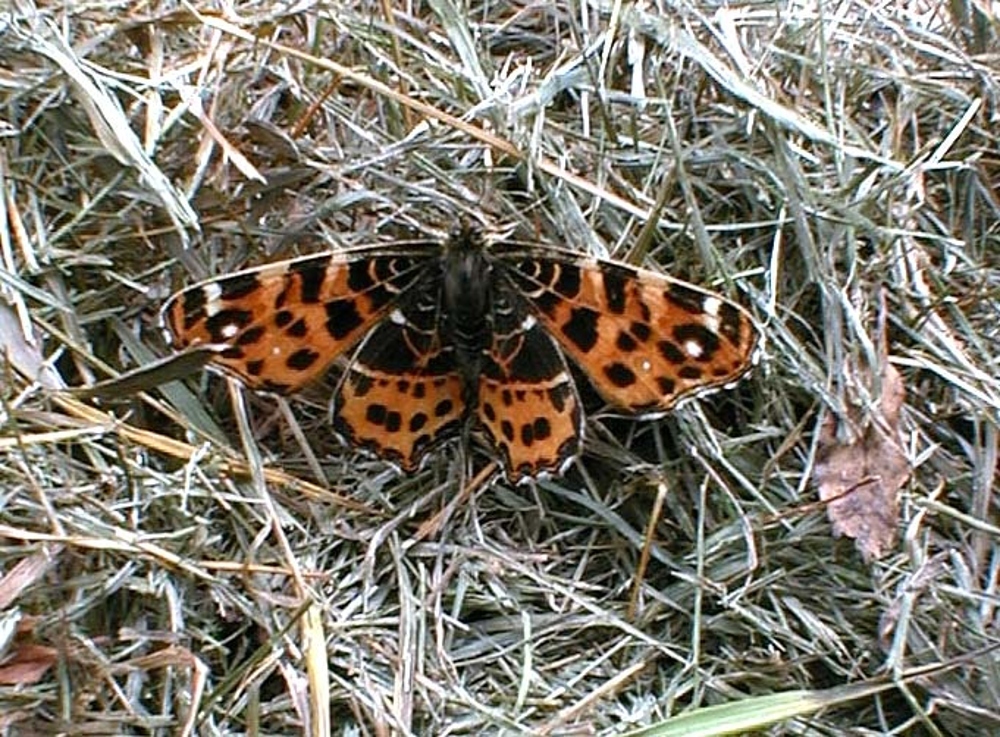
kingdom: Animalia
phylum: Arthropoda
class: Insecta
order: Lepidoptera
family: Nymphalidae
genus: Araschnia
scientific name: Araschnia levana
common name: Map butterfly
